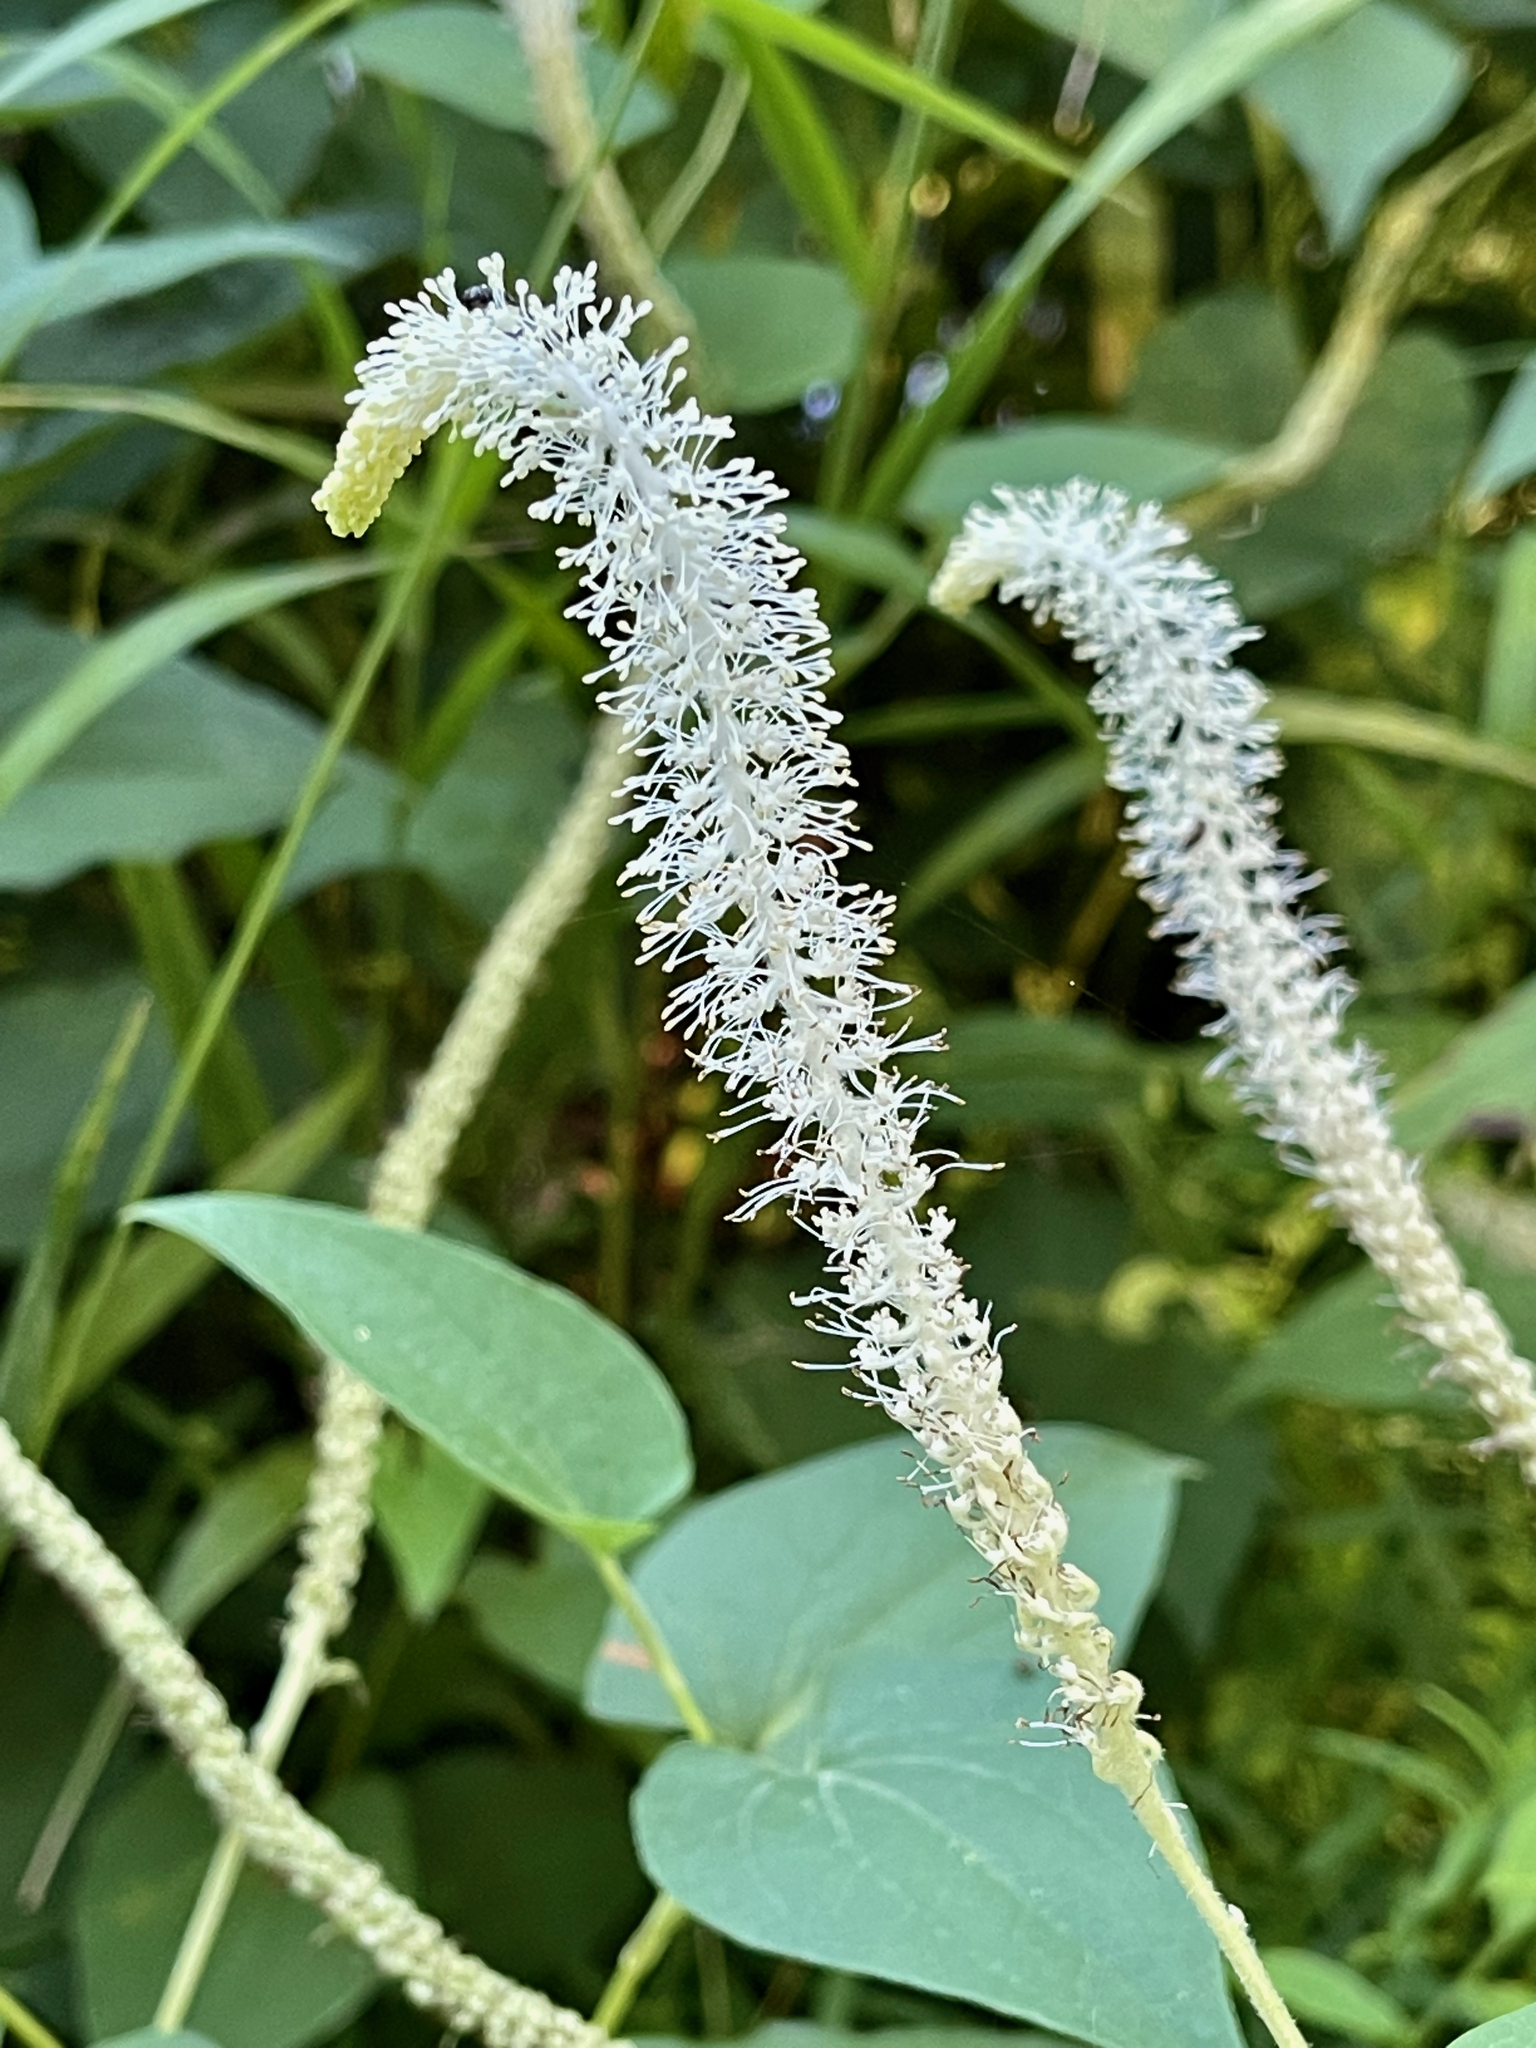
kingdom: Plantae
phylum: Tracheophyta
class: Magnoliopsida
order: Piperales
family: Saururaceae
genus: Saururus
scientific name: Saururus cernuus
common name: Lizard's-tail
